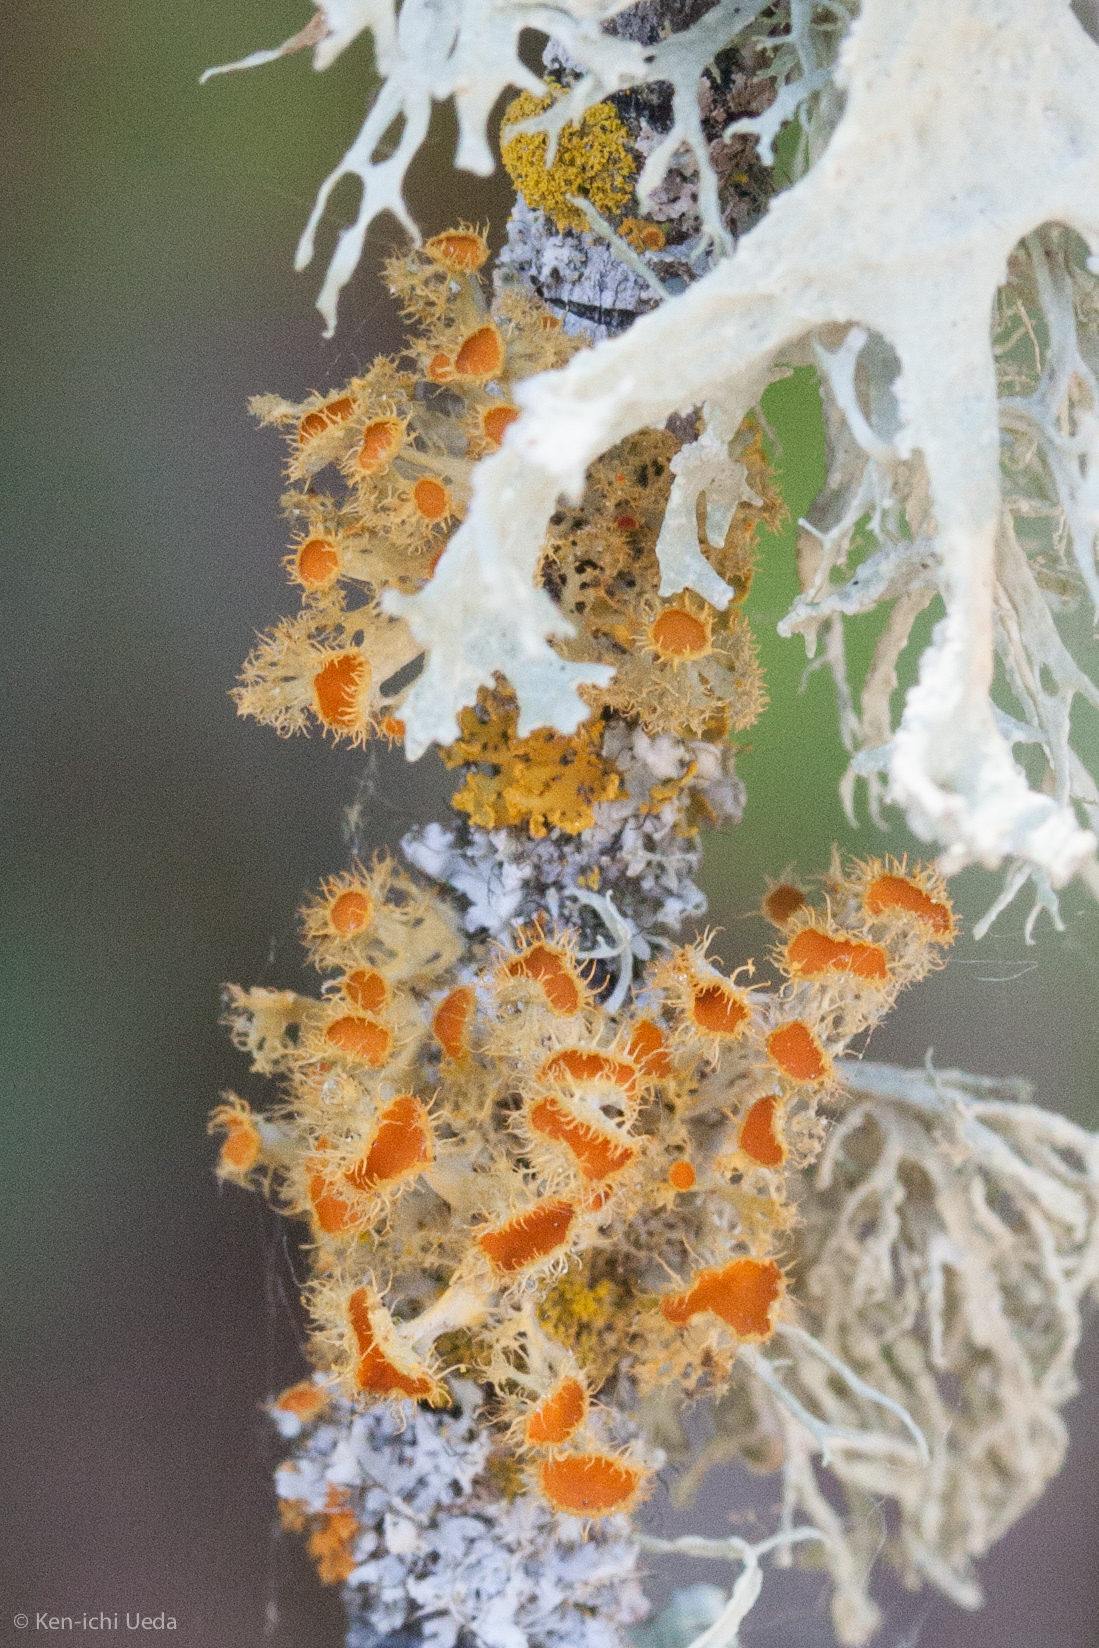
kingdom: Fungi
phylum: Ascomycota
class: Lecanoromycetes
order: Teloschistales
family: Teloschistaceae
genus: Niorma
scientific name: Niorma chrysophthalma
